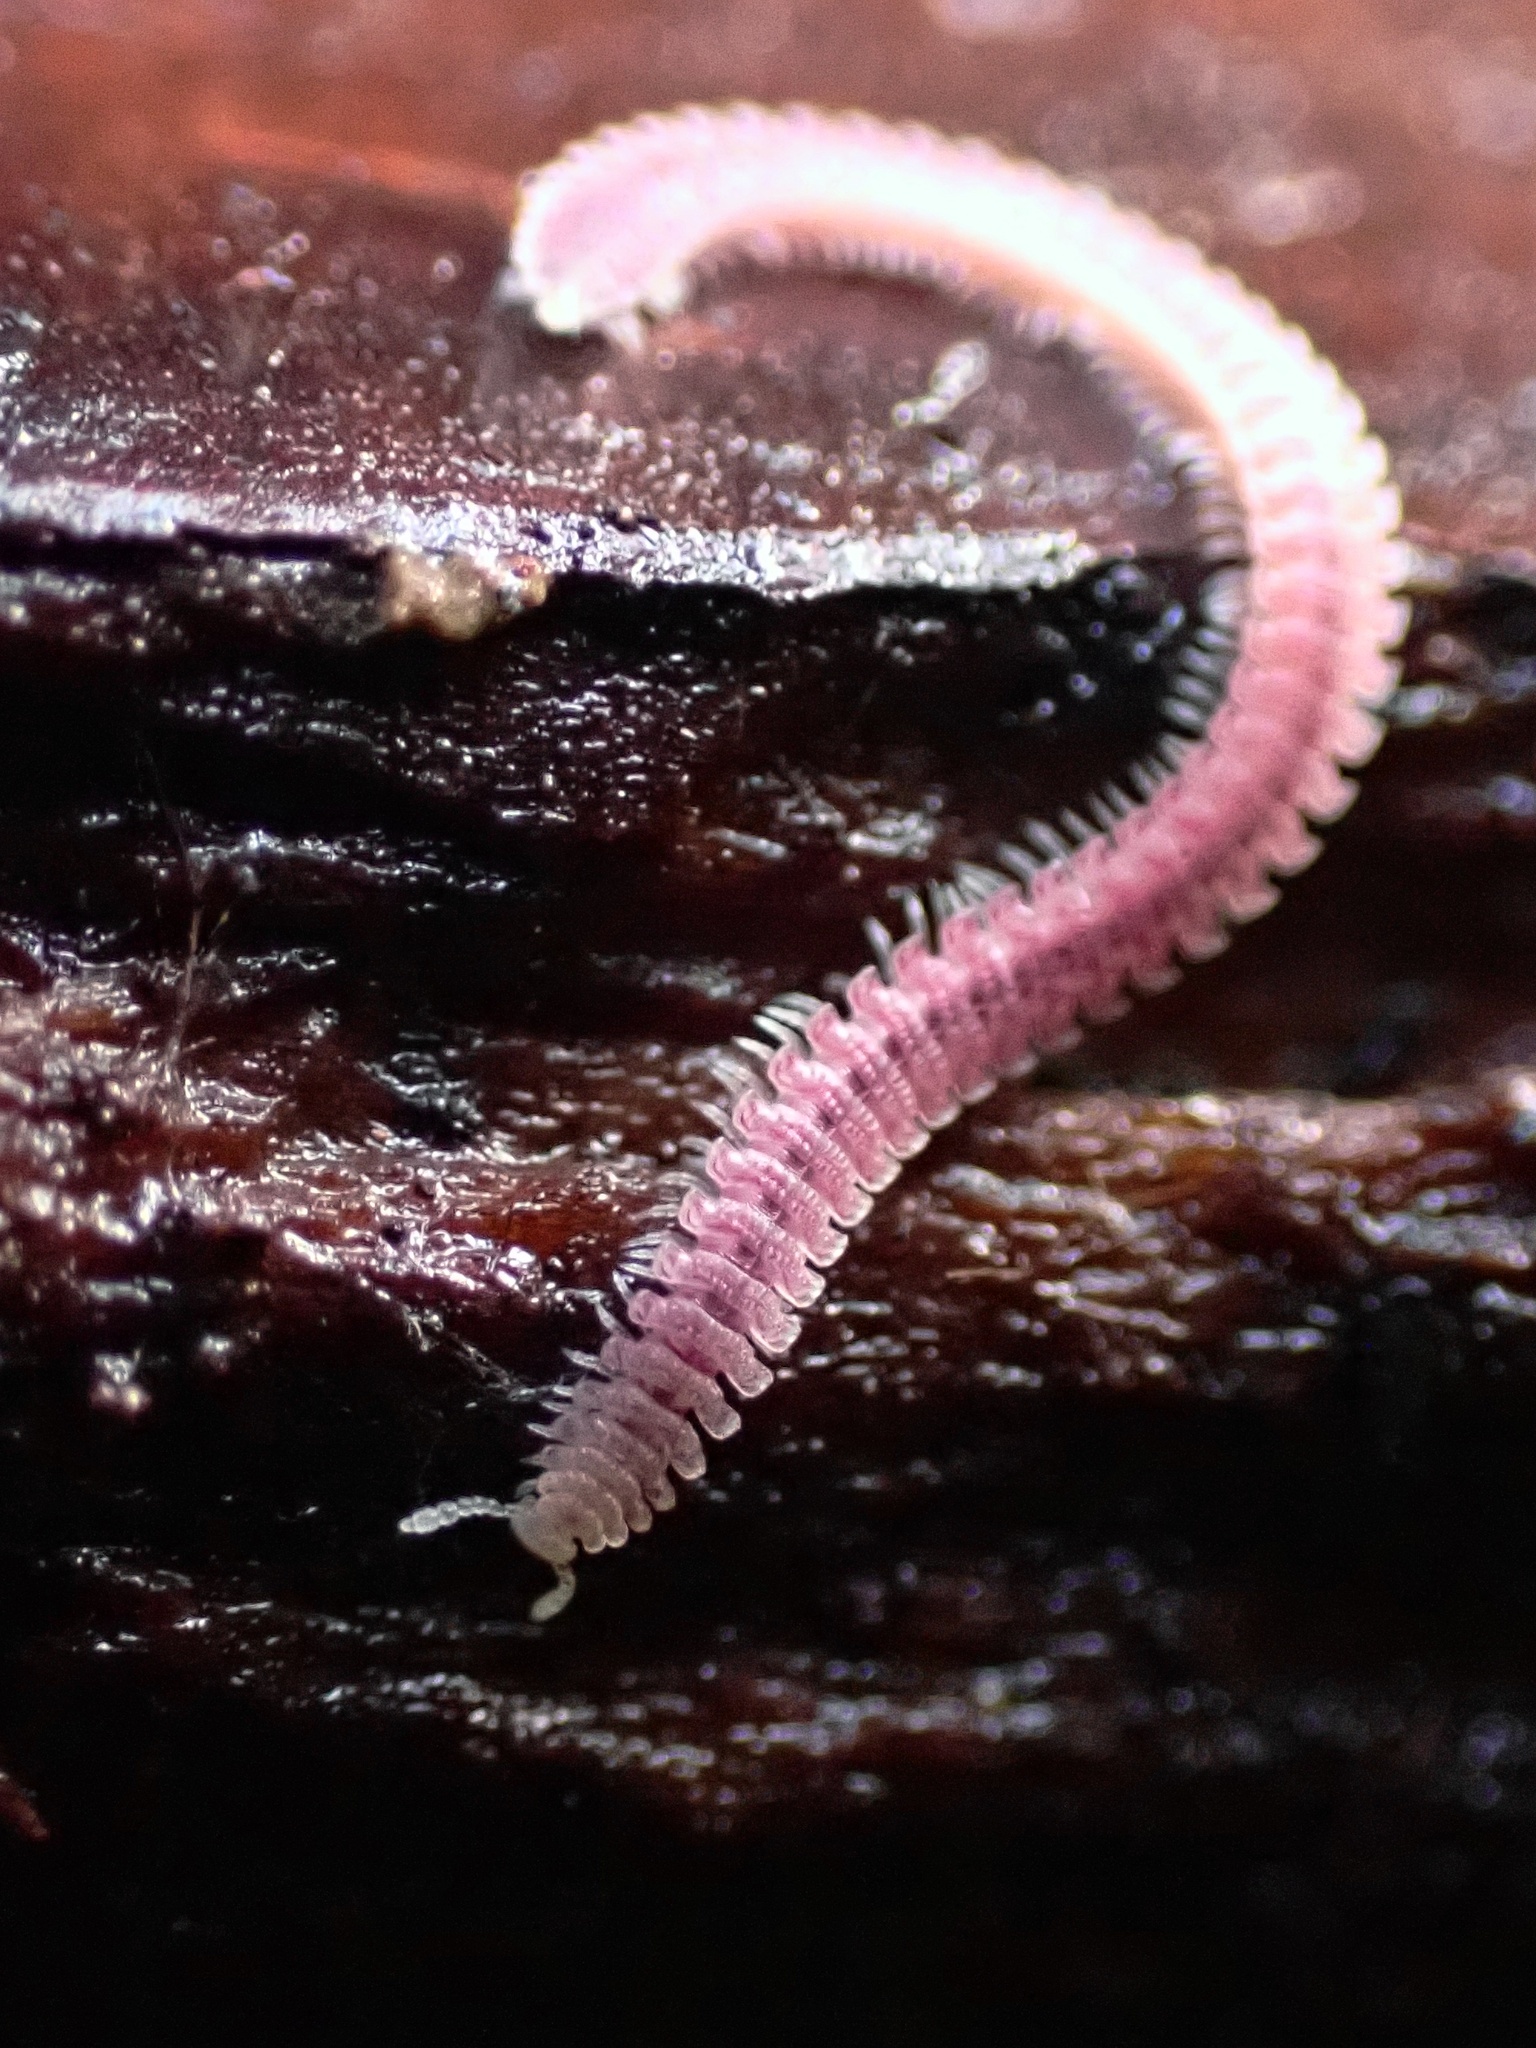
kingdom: Animalia
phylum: Arthropoda
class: Diplopoda
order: Platydesmida
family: Andrognathidae
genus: Gosodesmus
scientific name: Gosodesmus claremontus
